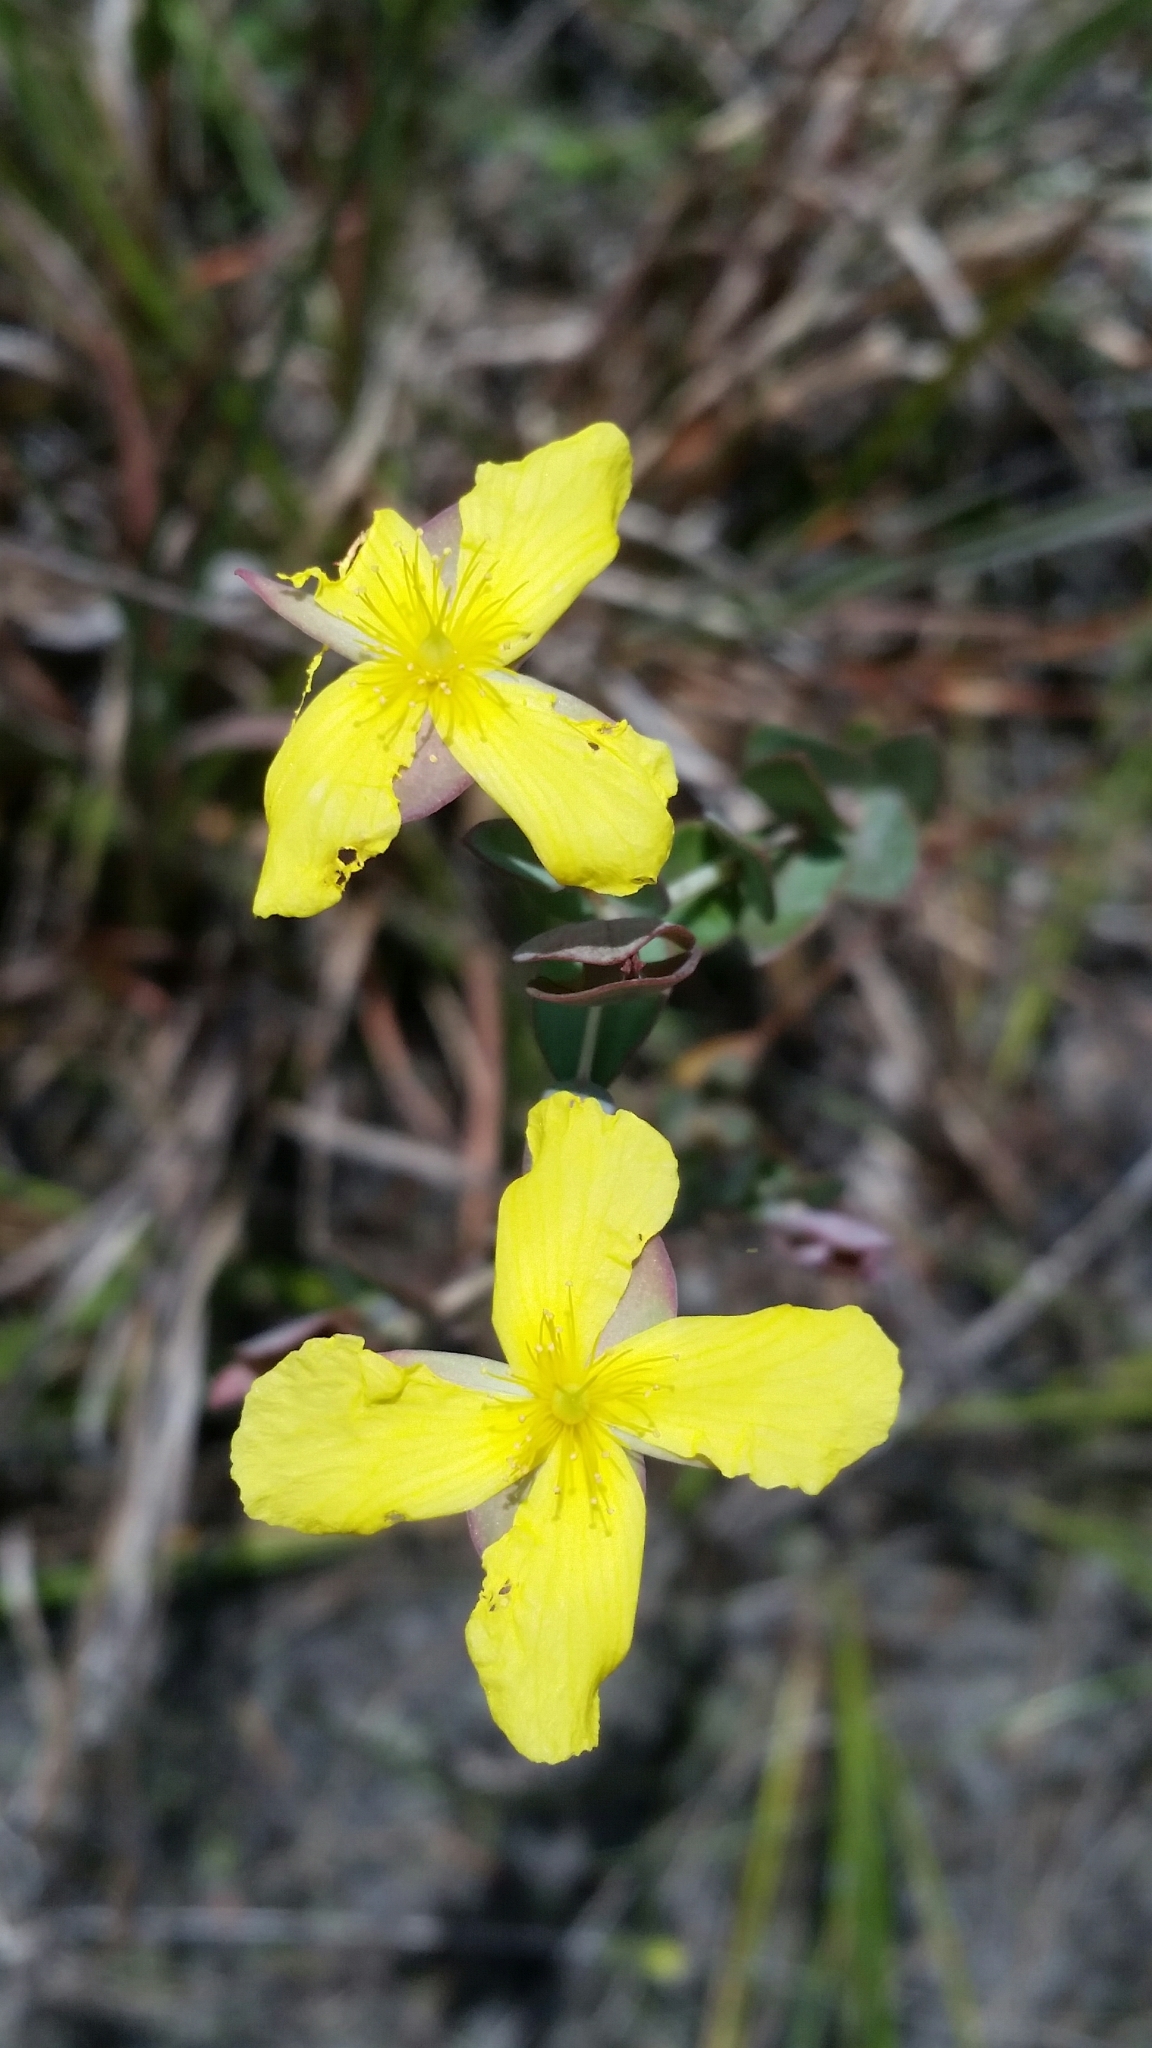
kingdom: Plantae
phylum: Tracheophyta
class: Magnoliopsida
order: Malpighiales
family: Hypericaceae
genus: Hypericum
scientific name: Hypericum tetrapetalum
